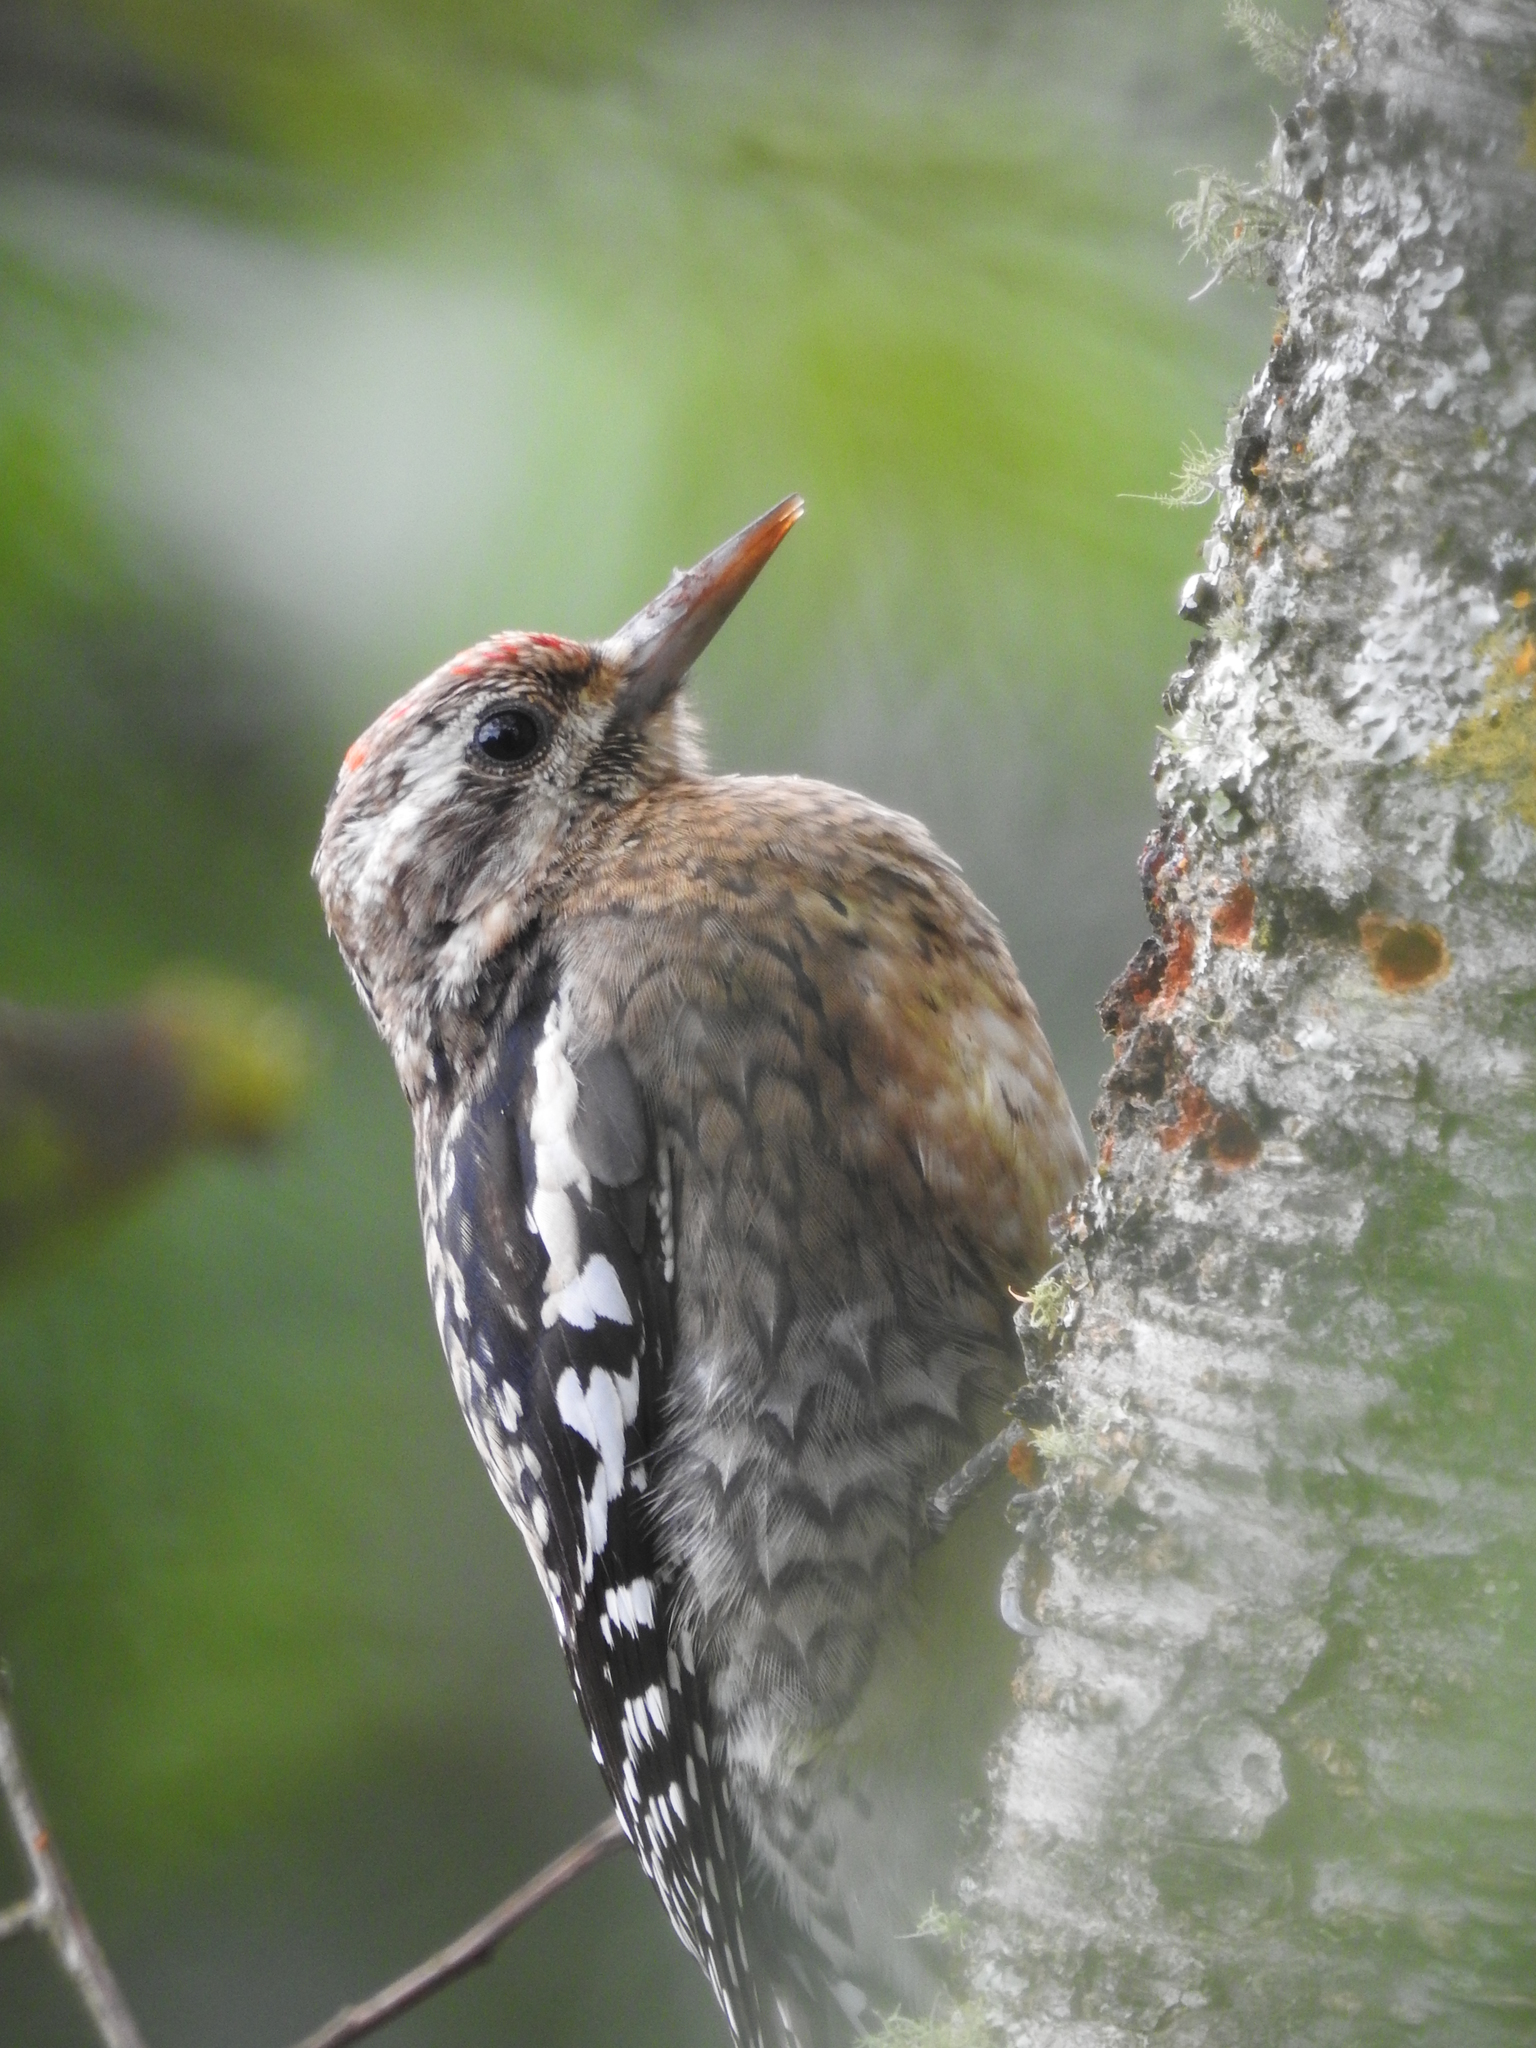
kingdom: Animalia
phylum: Chordata
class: Aves
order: Piciformes
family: Picidae
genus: Sphyrapicus
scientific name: Sphyrapicus varius
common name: Yellow-bellied sapsucker
